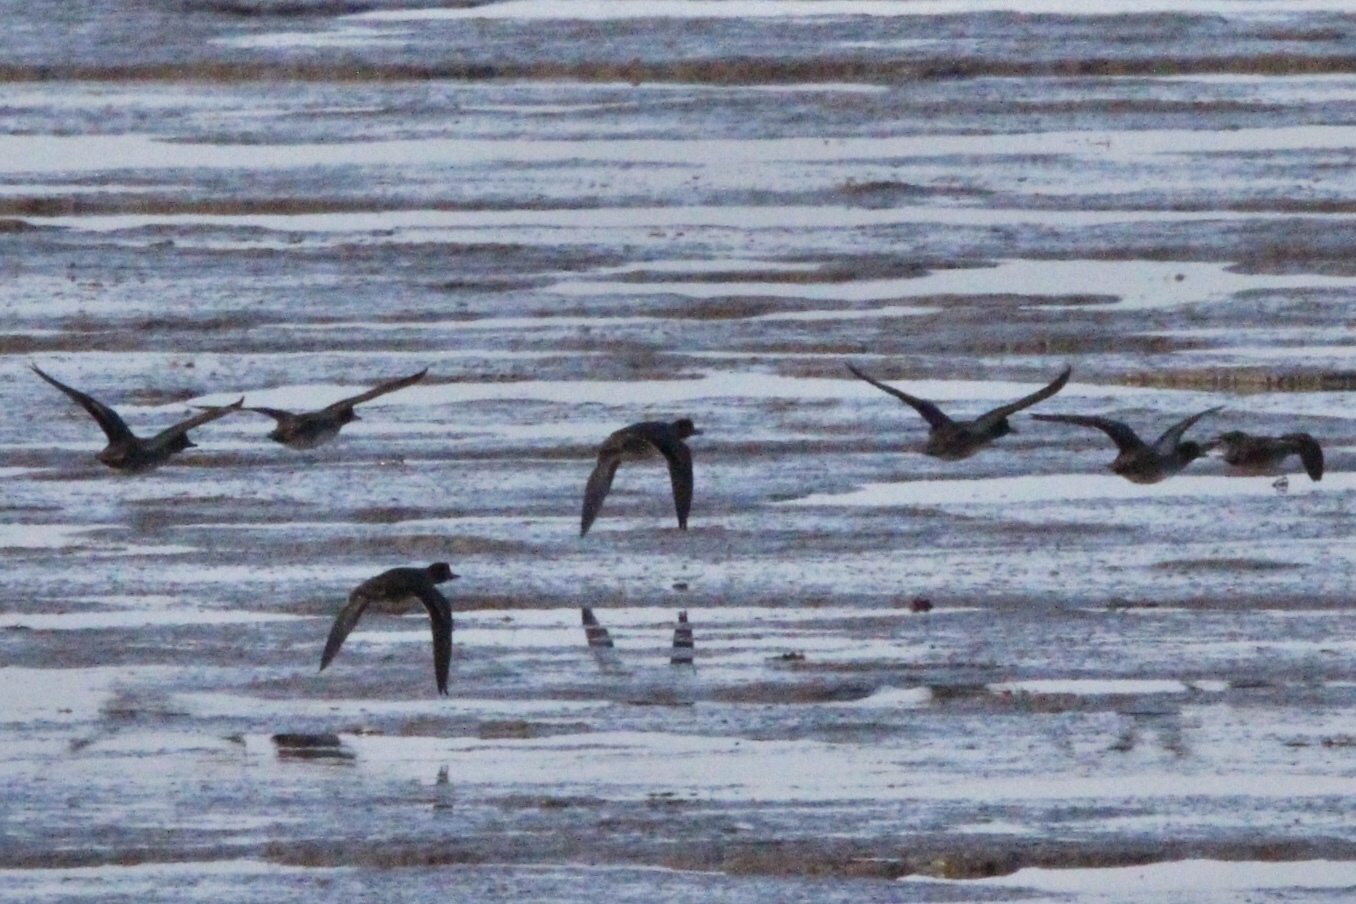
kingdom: Animalia
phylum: Chordata
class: Aves
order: Anseriformes
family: Anatidae
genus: Anas
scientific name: Anas crecca
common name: Eurasian teal
